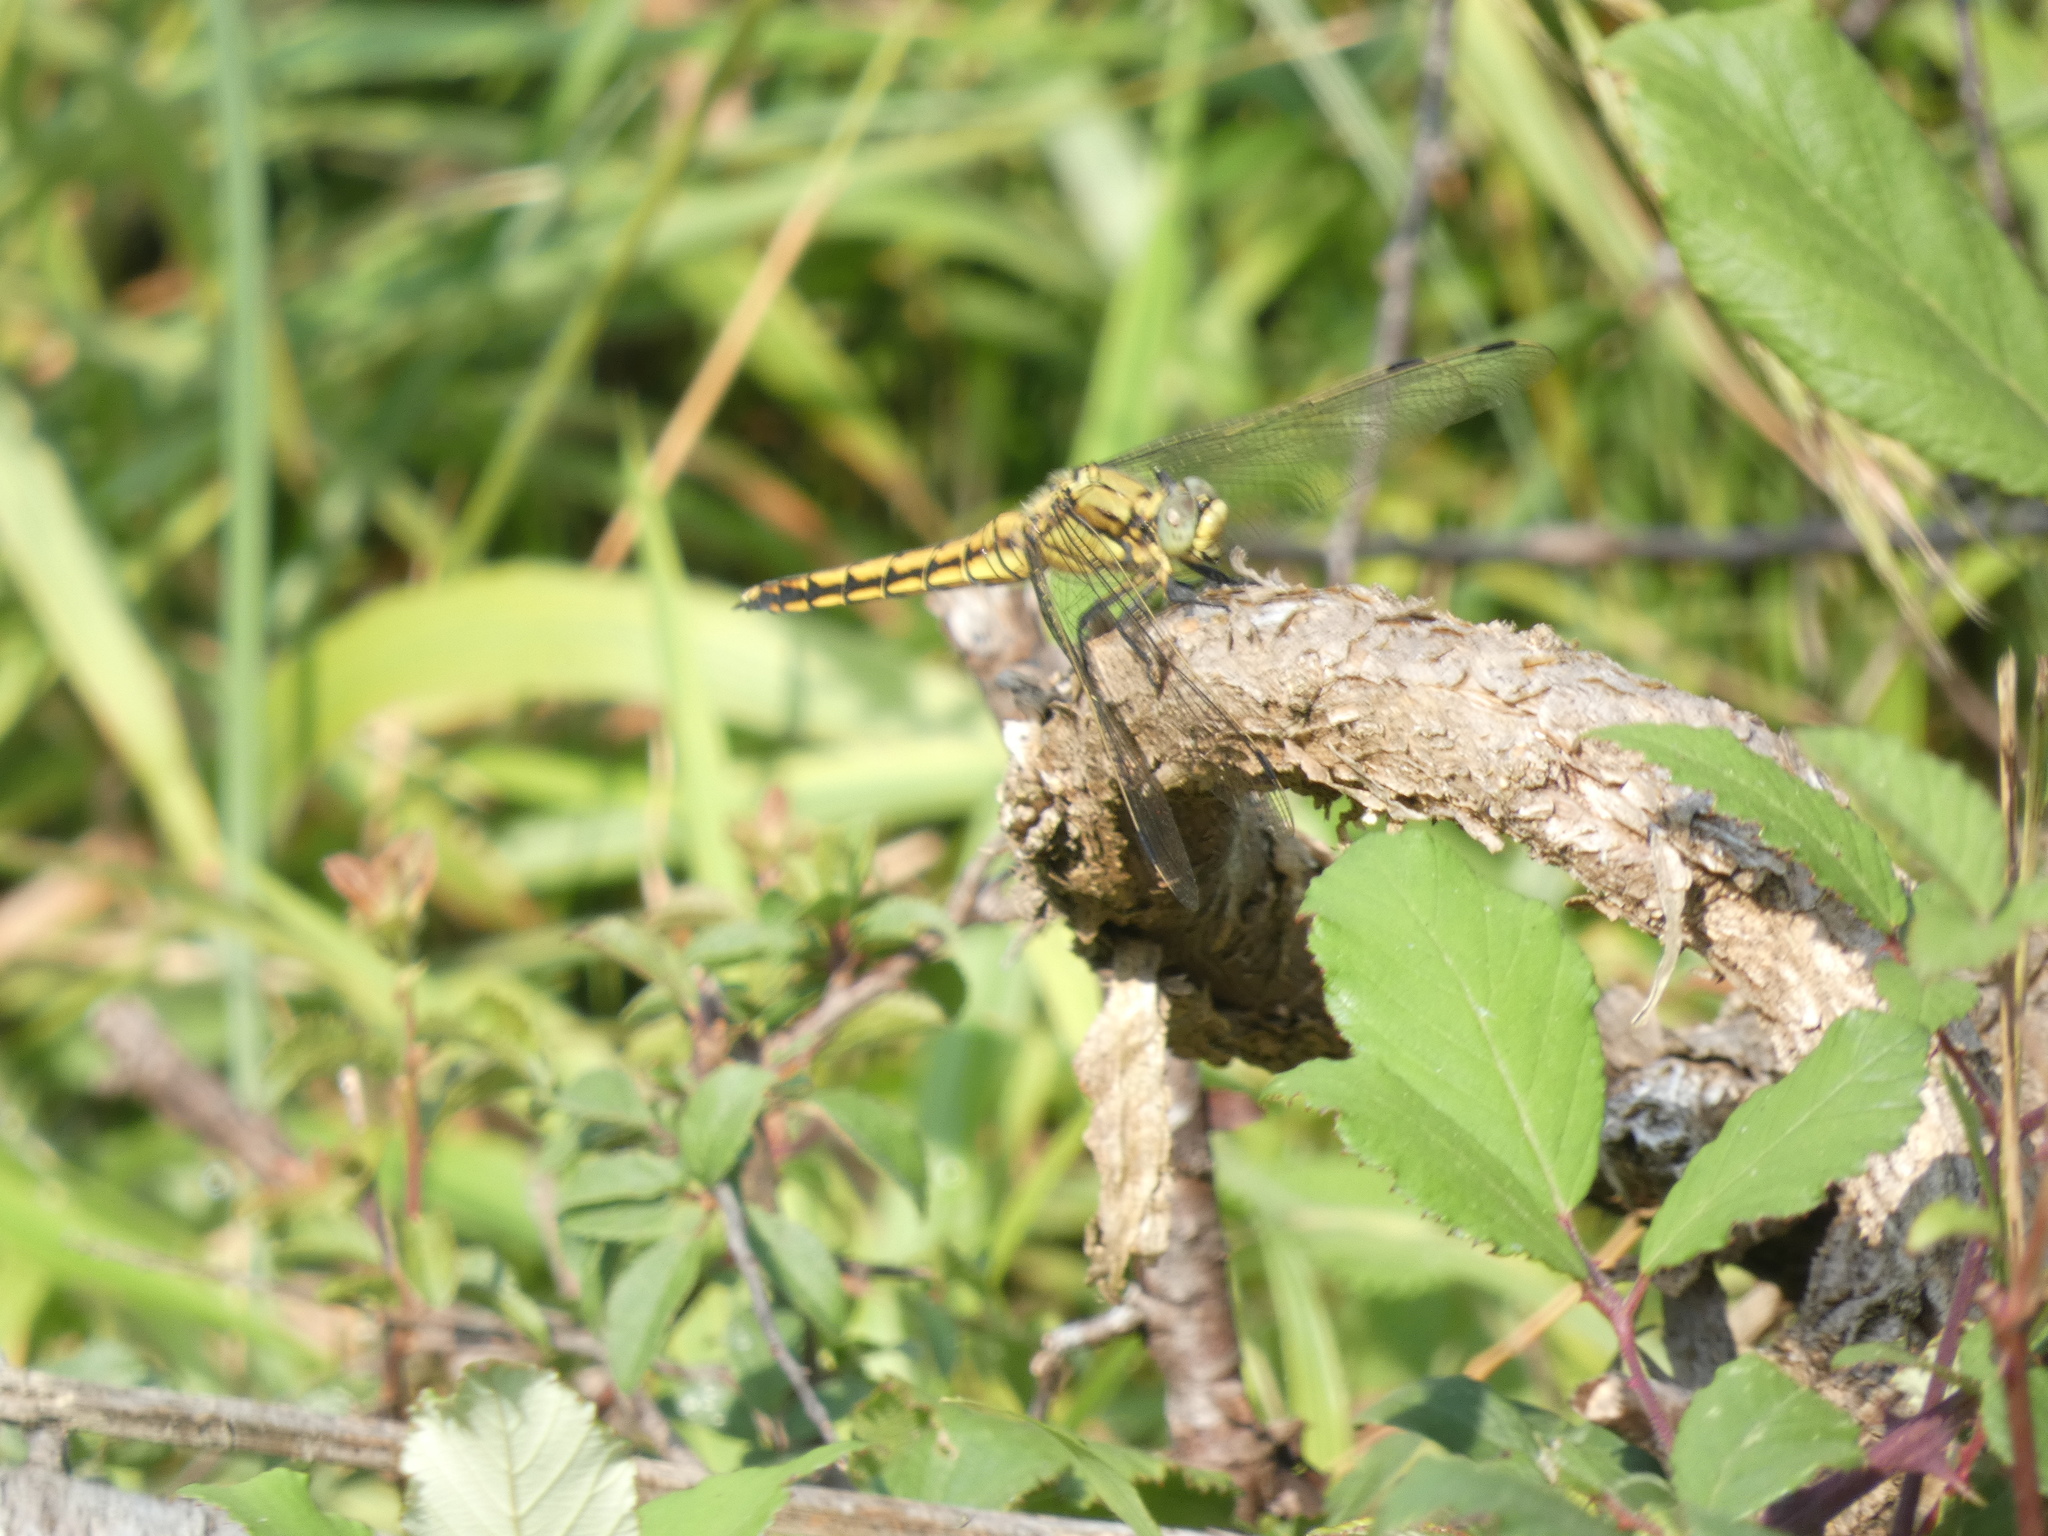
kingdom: Animalia
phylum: Arthropoda
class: Insecta
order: Odonata
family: Libellulidae
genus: Orthetrum
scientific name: Orthetrum cancellatum
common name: Black-tailed skimmer
